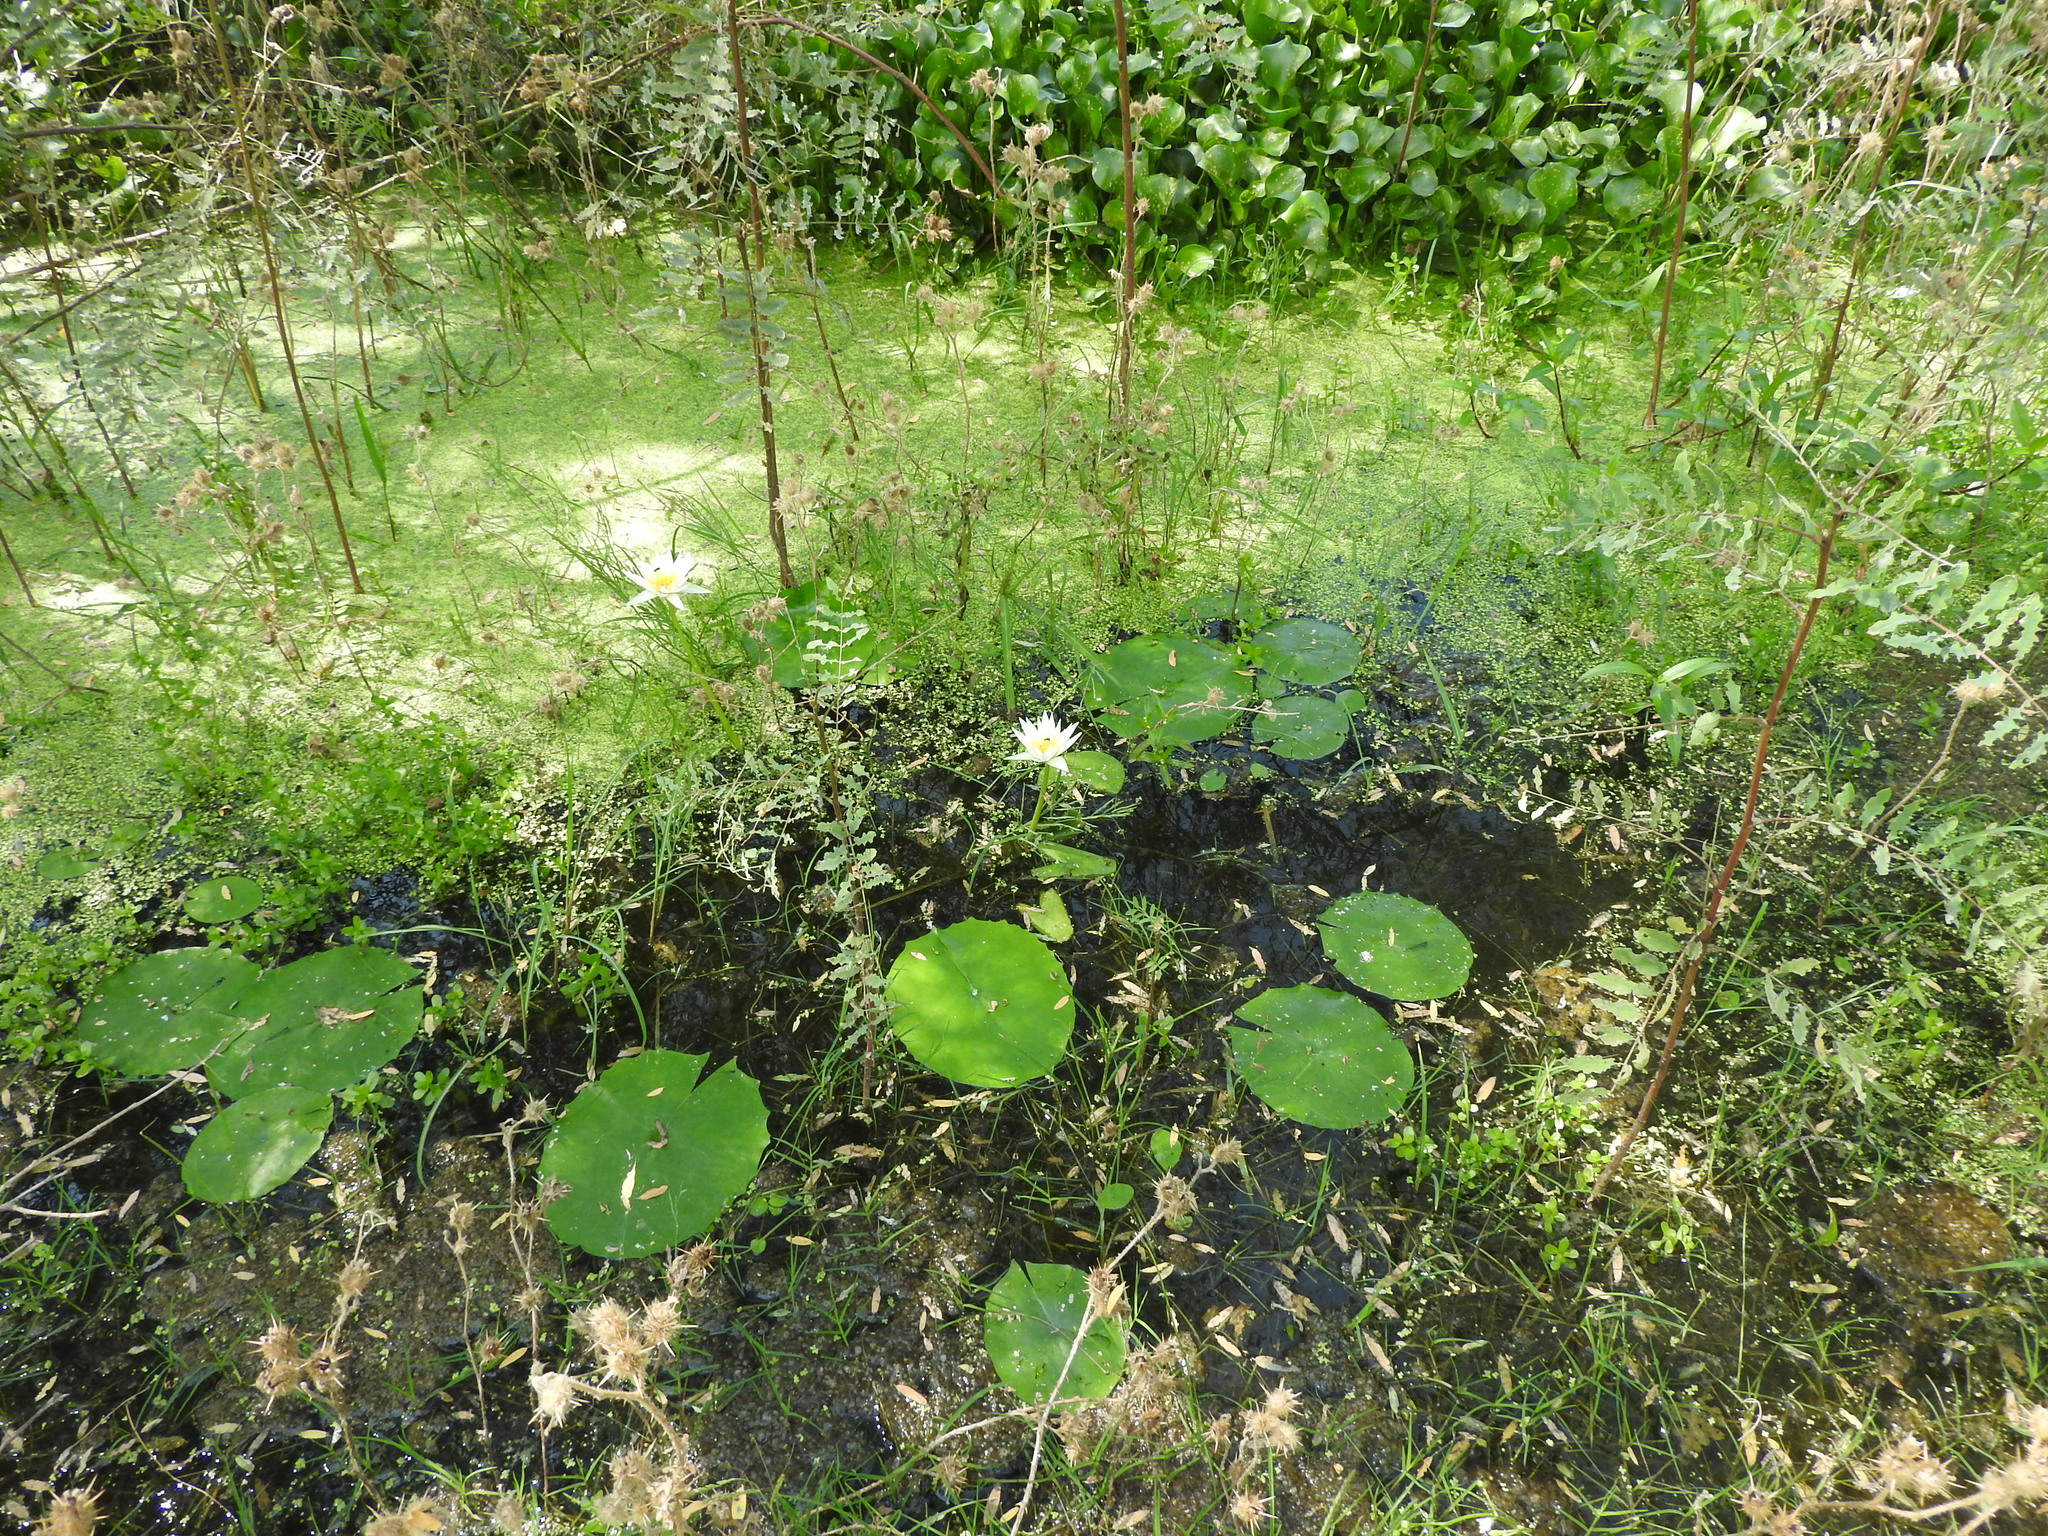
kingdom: Plantae
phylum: Tracheophyta
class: Magnoliopsida
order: Nymphaeales
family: Nymphaeaceae
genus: Nymphaea
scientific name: Nymphaea gracilis
